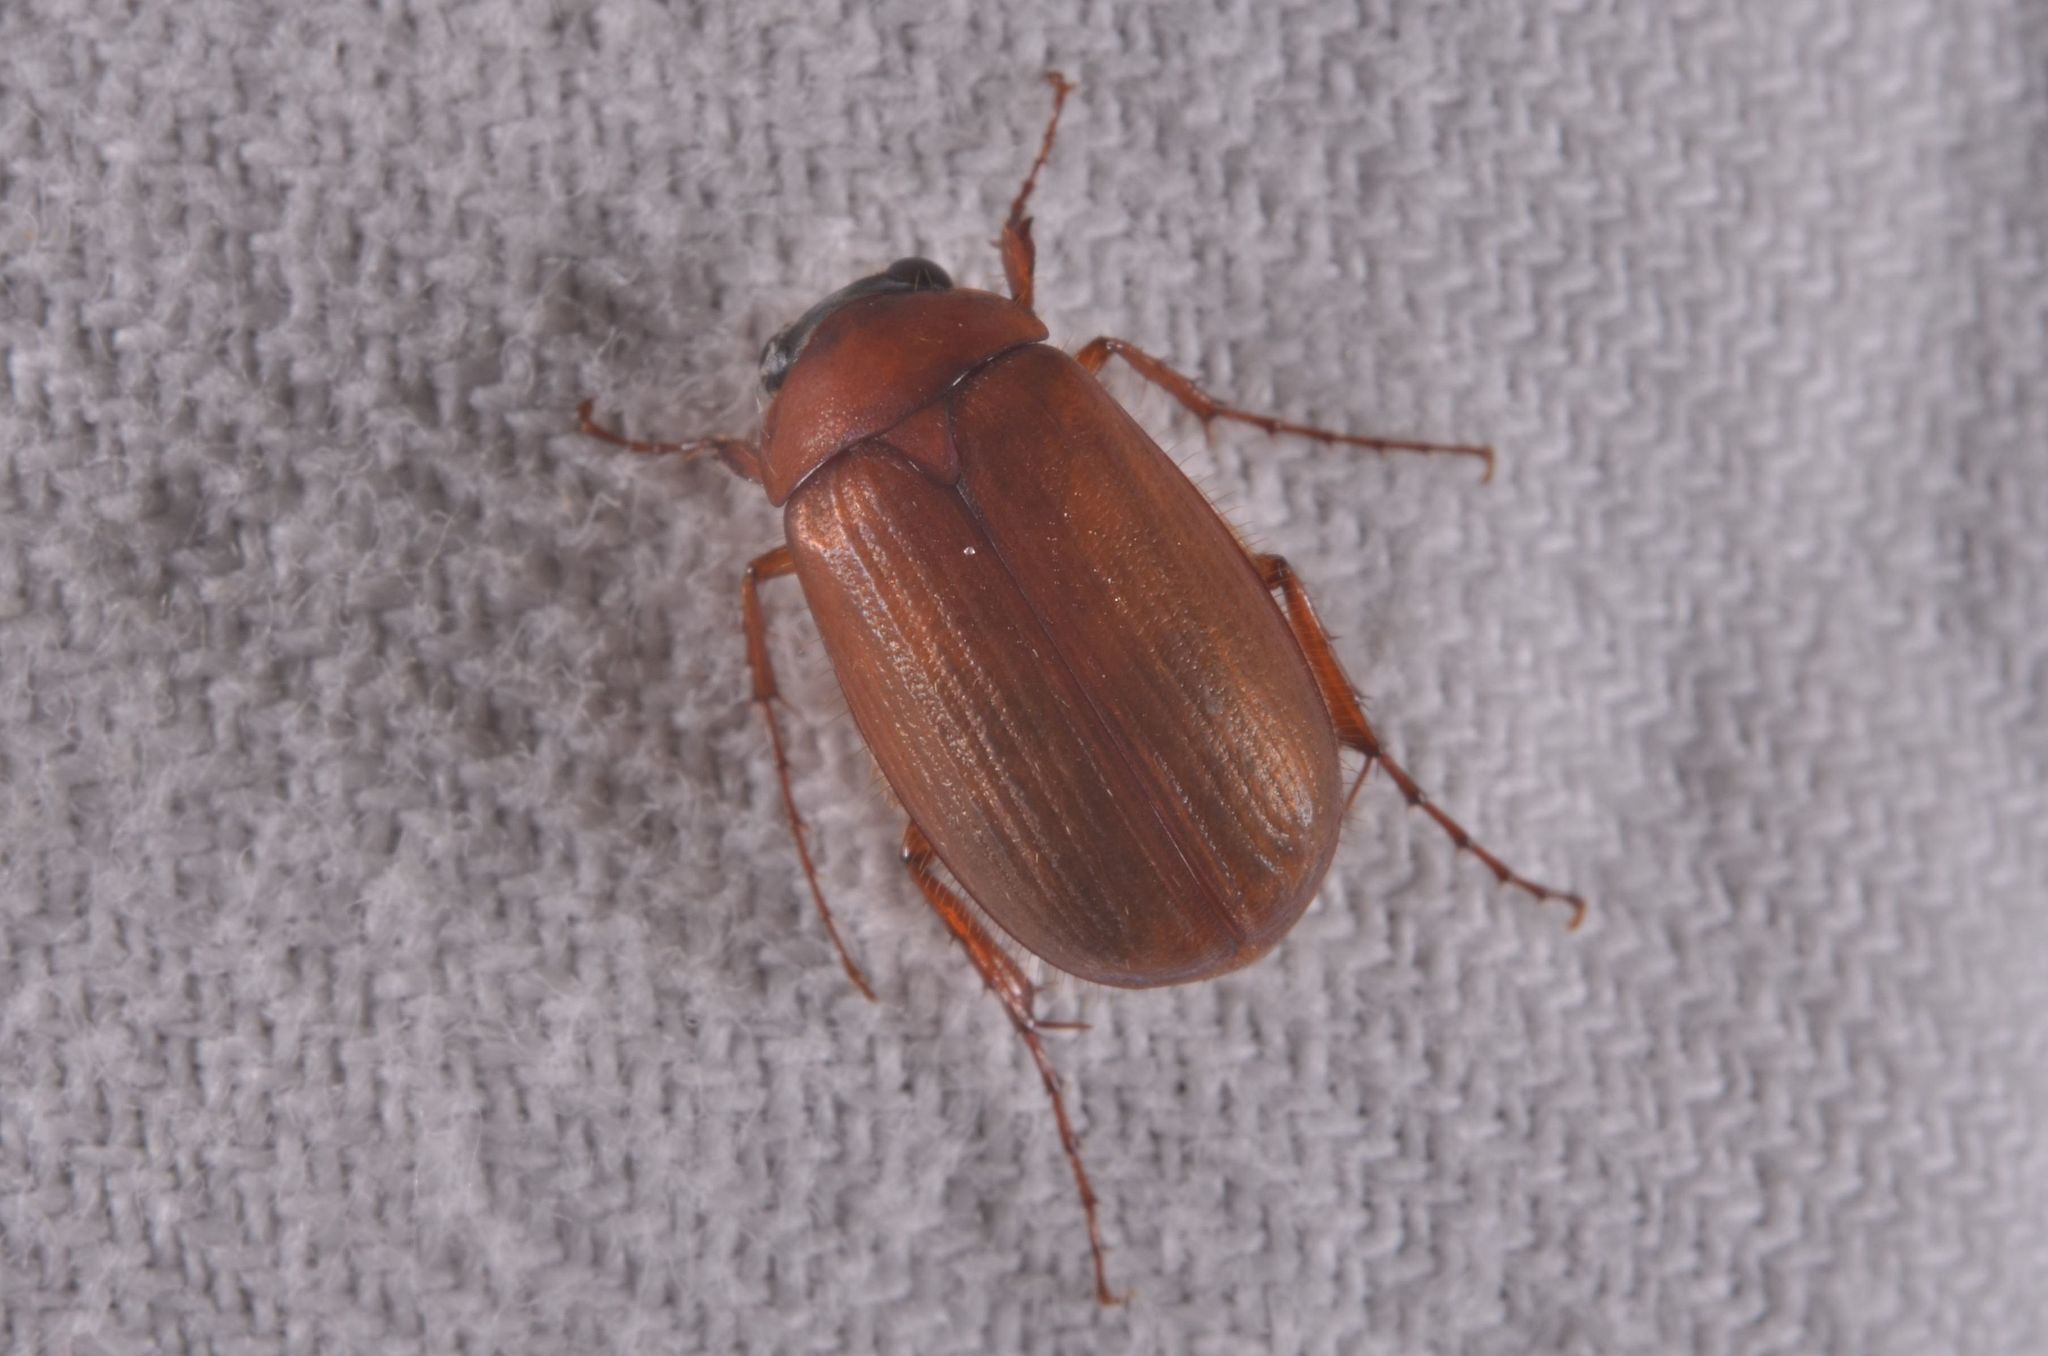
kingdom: Animalia
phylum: Arthropoda
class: Insecta
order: Coleoptera
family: Scarabaeidae
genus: Serica
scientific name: Serica brunnea
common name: Brown chafer
